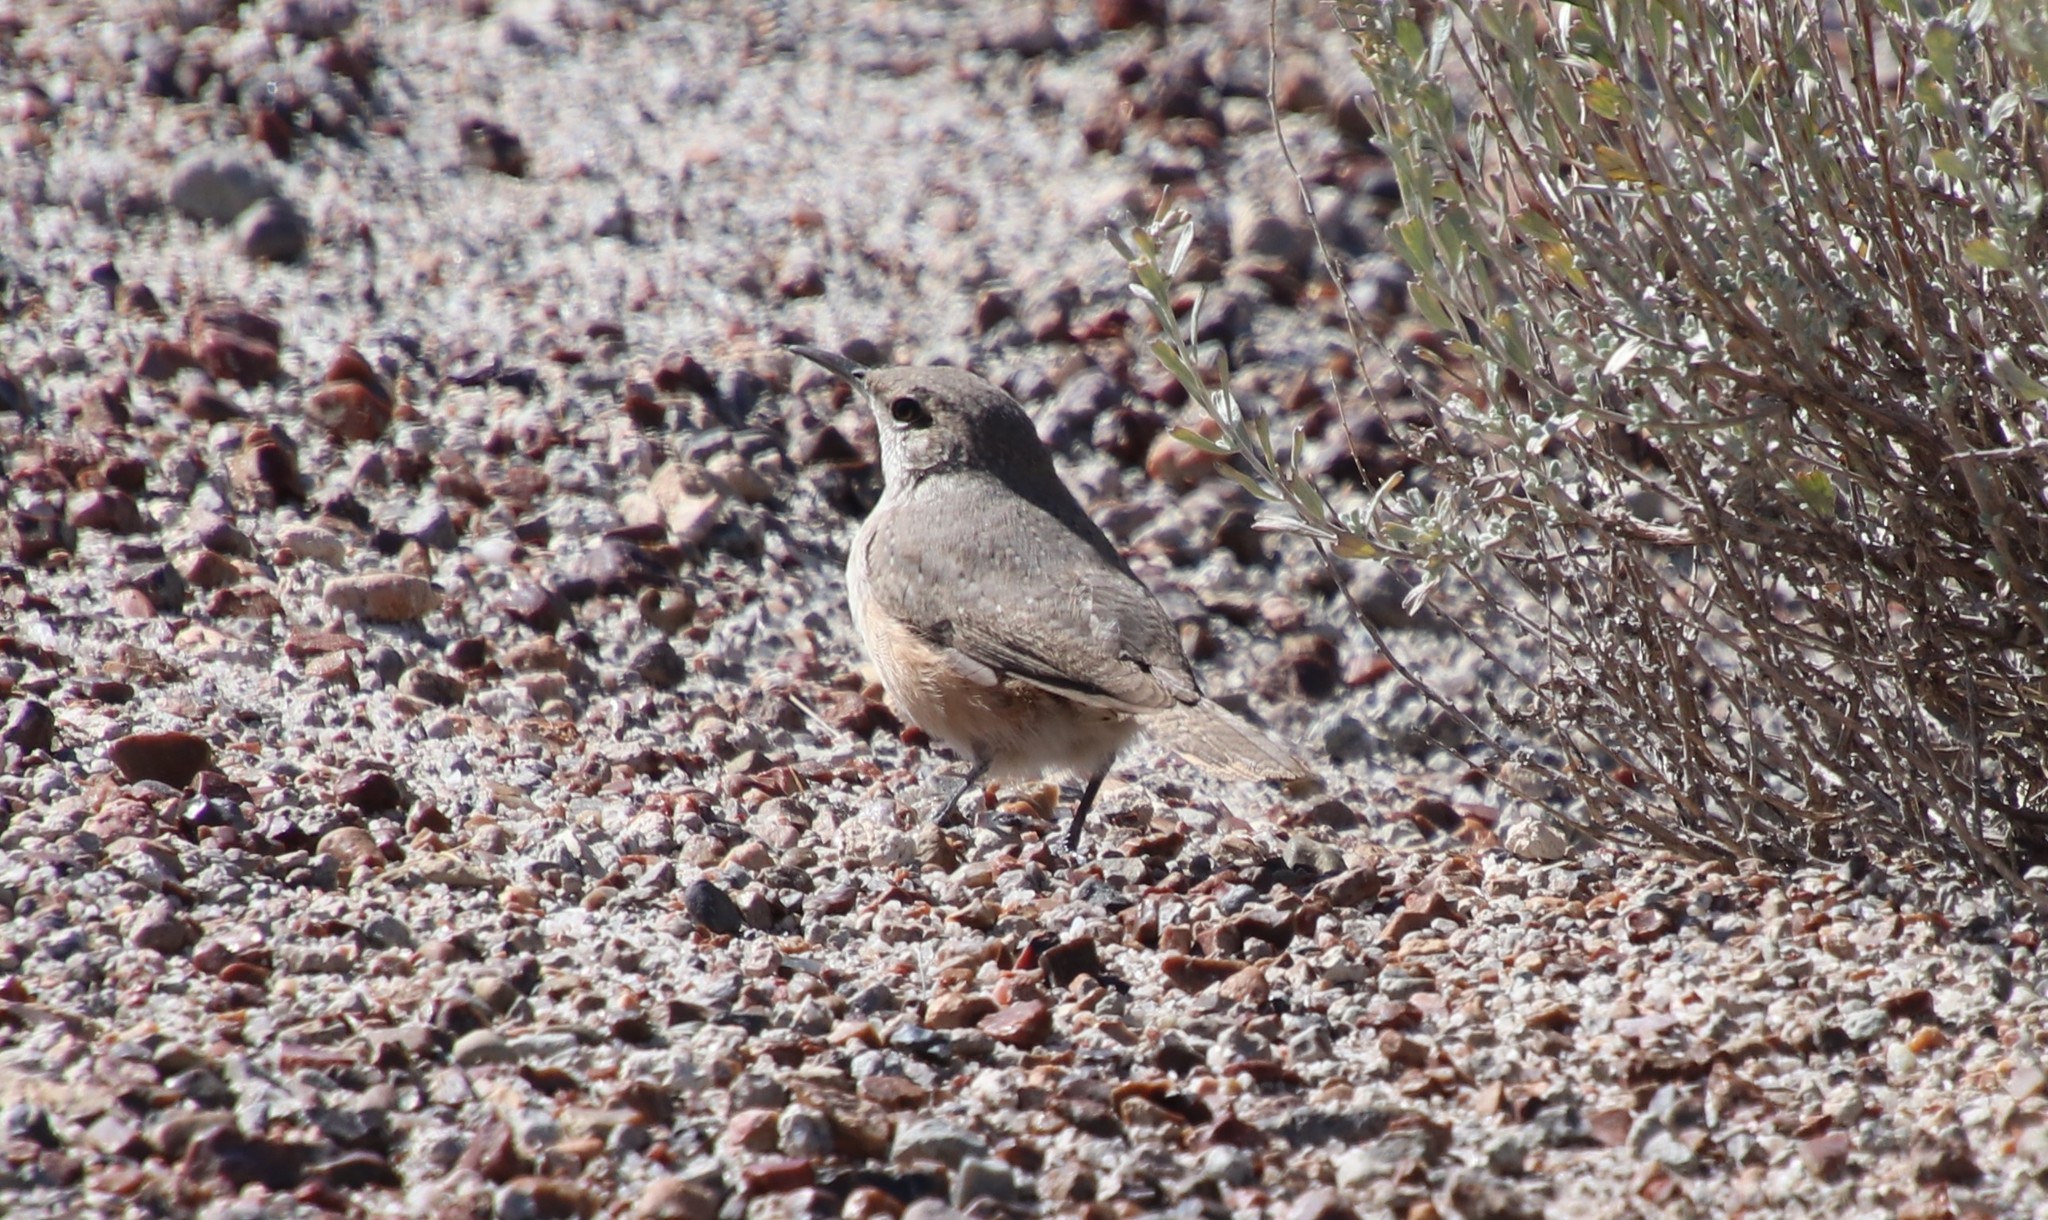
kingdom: Animalia
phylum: Chordata
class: Aves
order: Passeriformes
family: Troglodytidae
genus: Salpinctes
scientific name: Salpinctes obsoletus
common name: Rock wren
